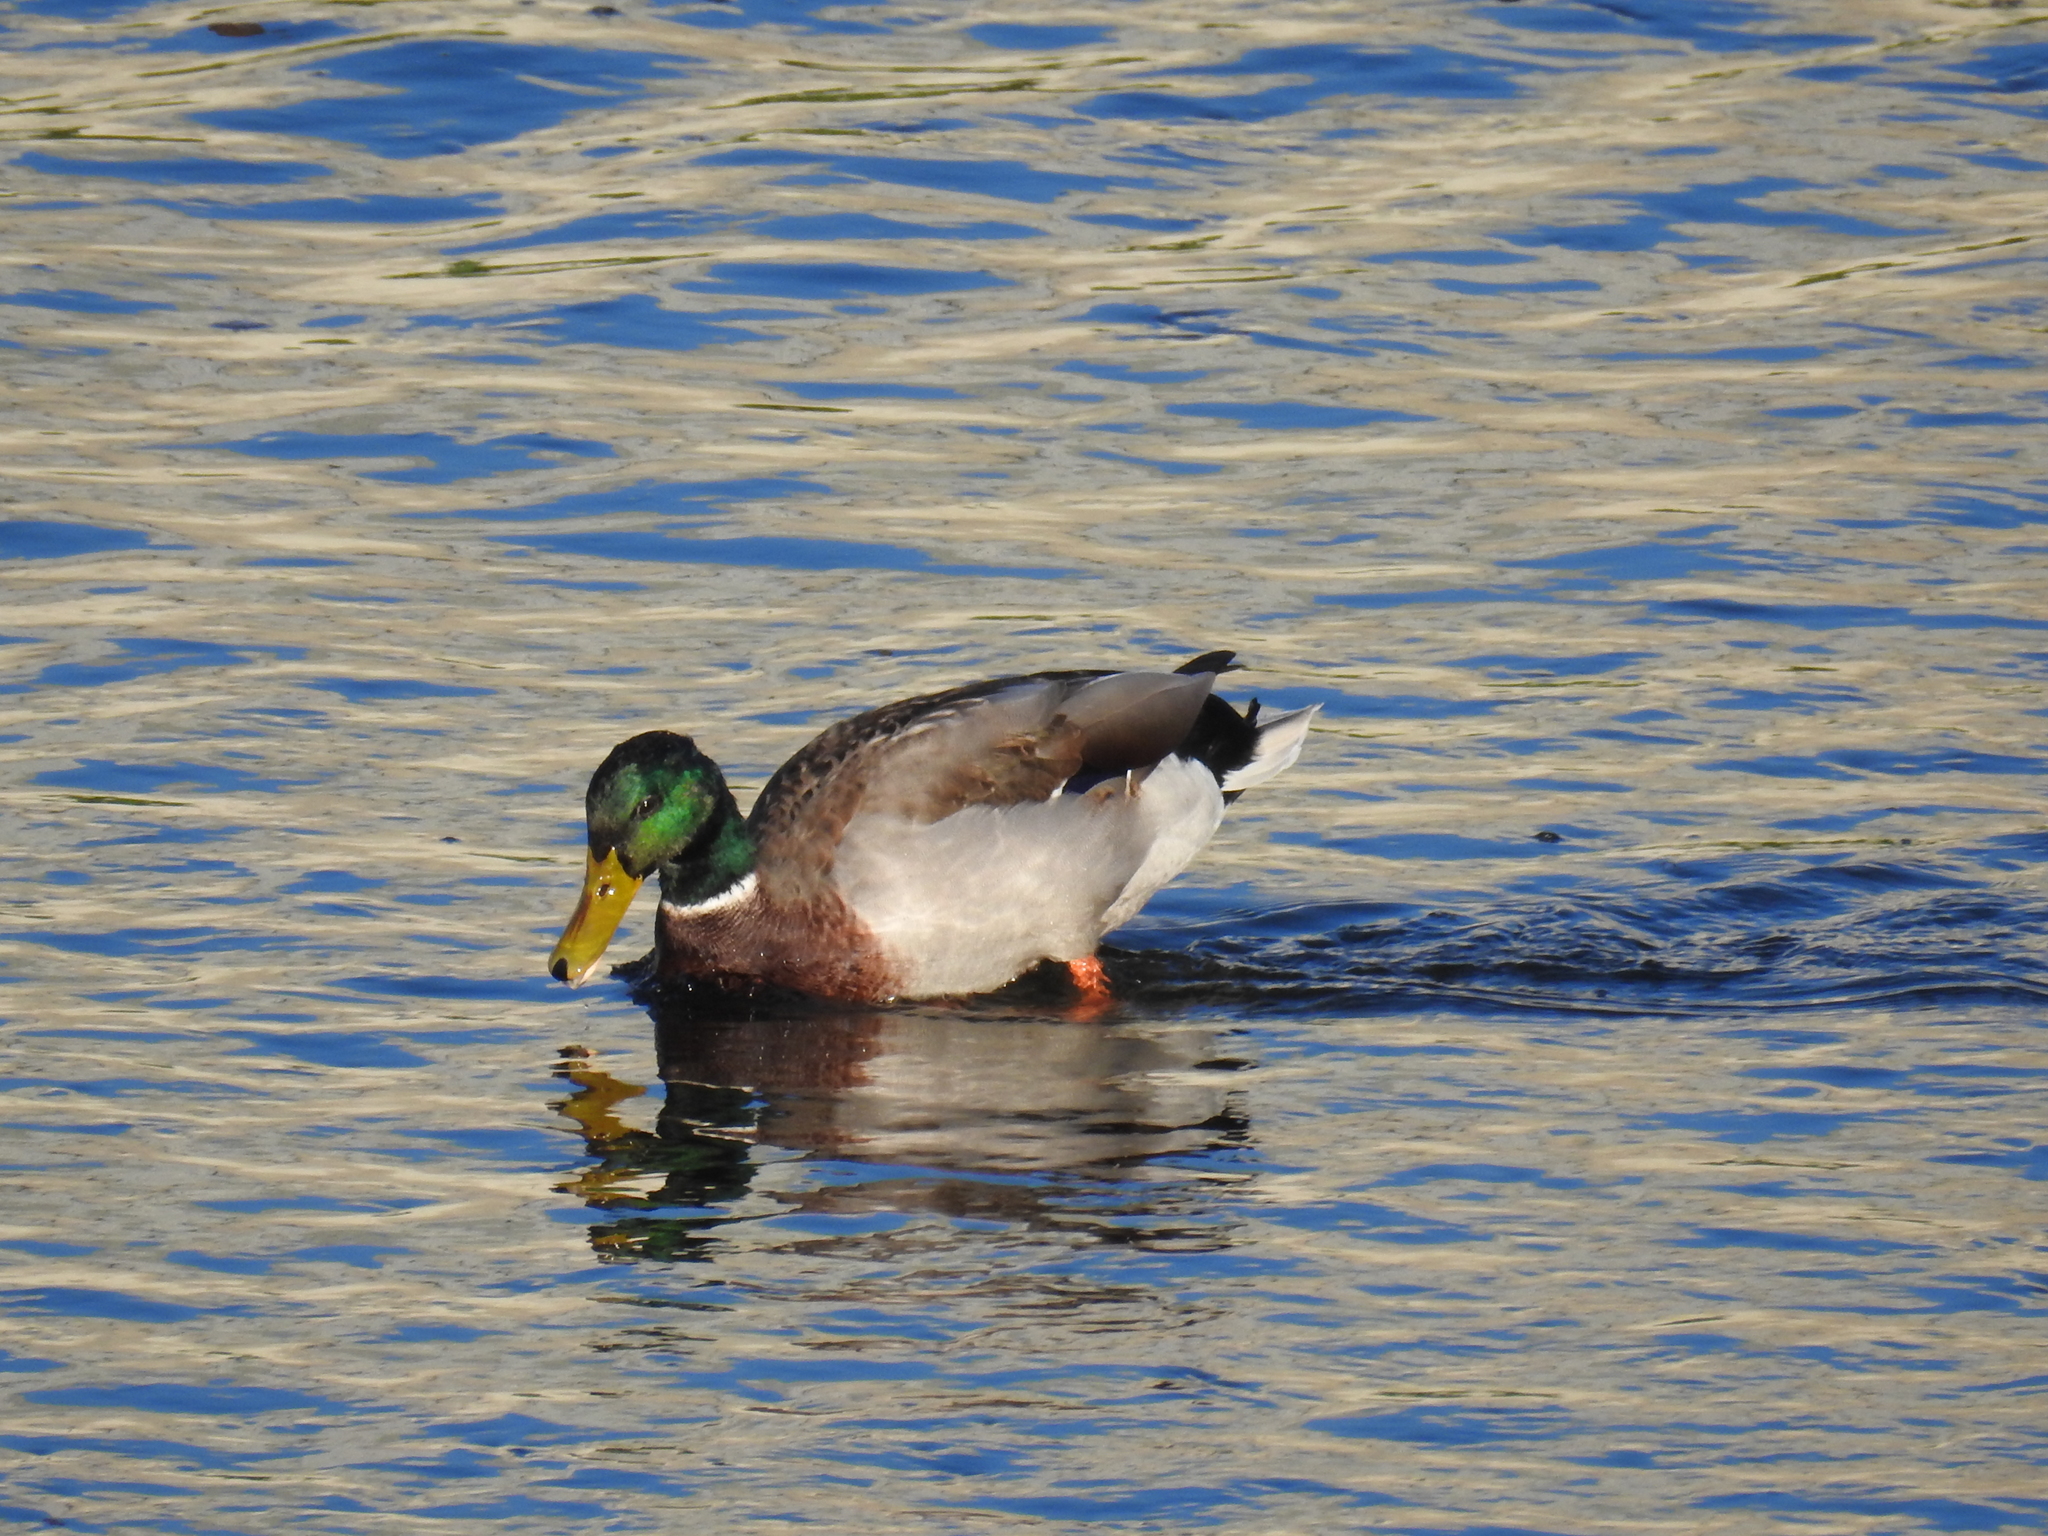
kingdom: Animalia
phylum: Chordata
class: Aves
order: Anseriformes
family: Anatidae
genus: Anas
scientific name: Anas platyrhynchos
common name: Mallard
